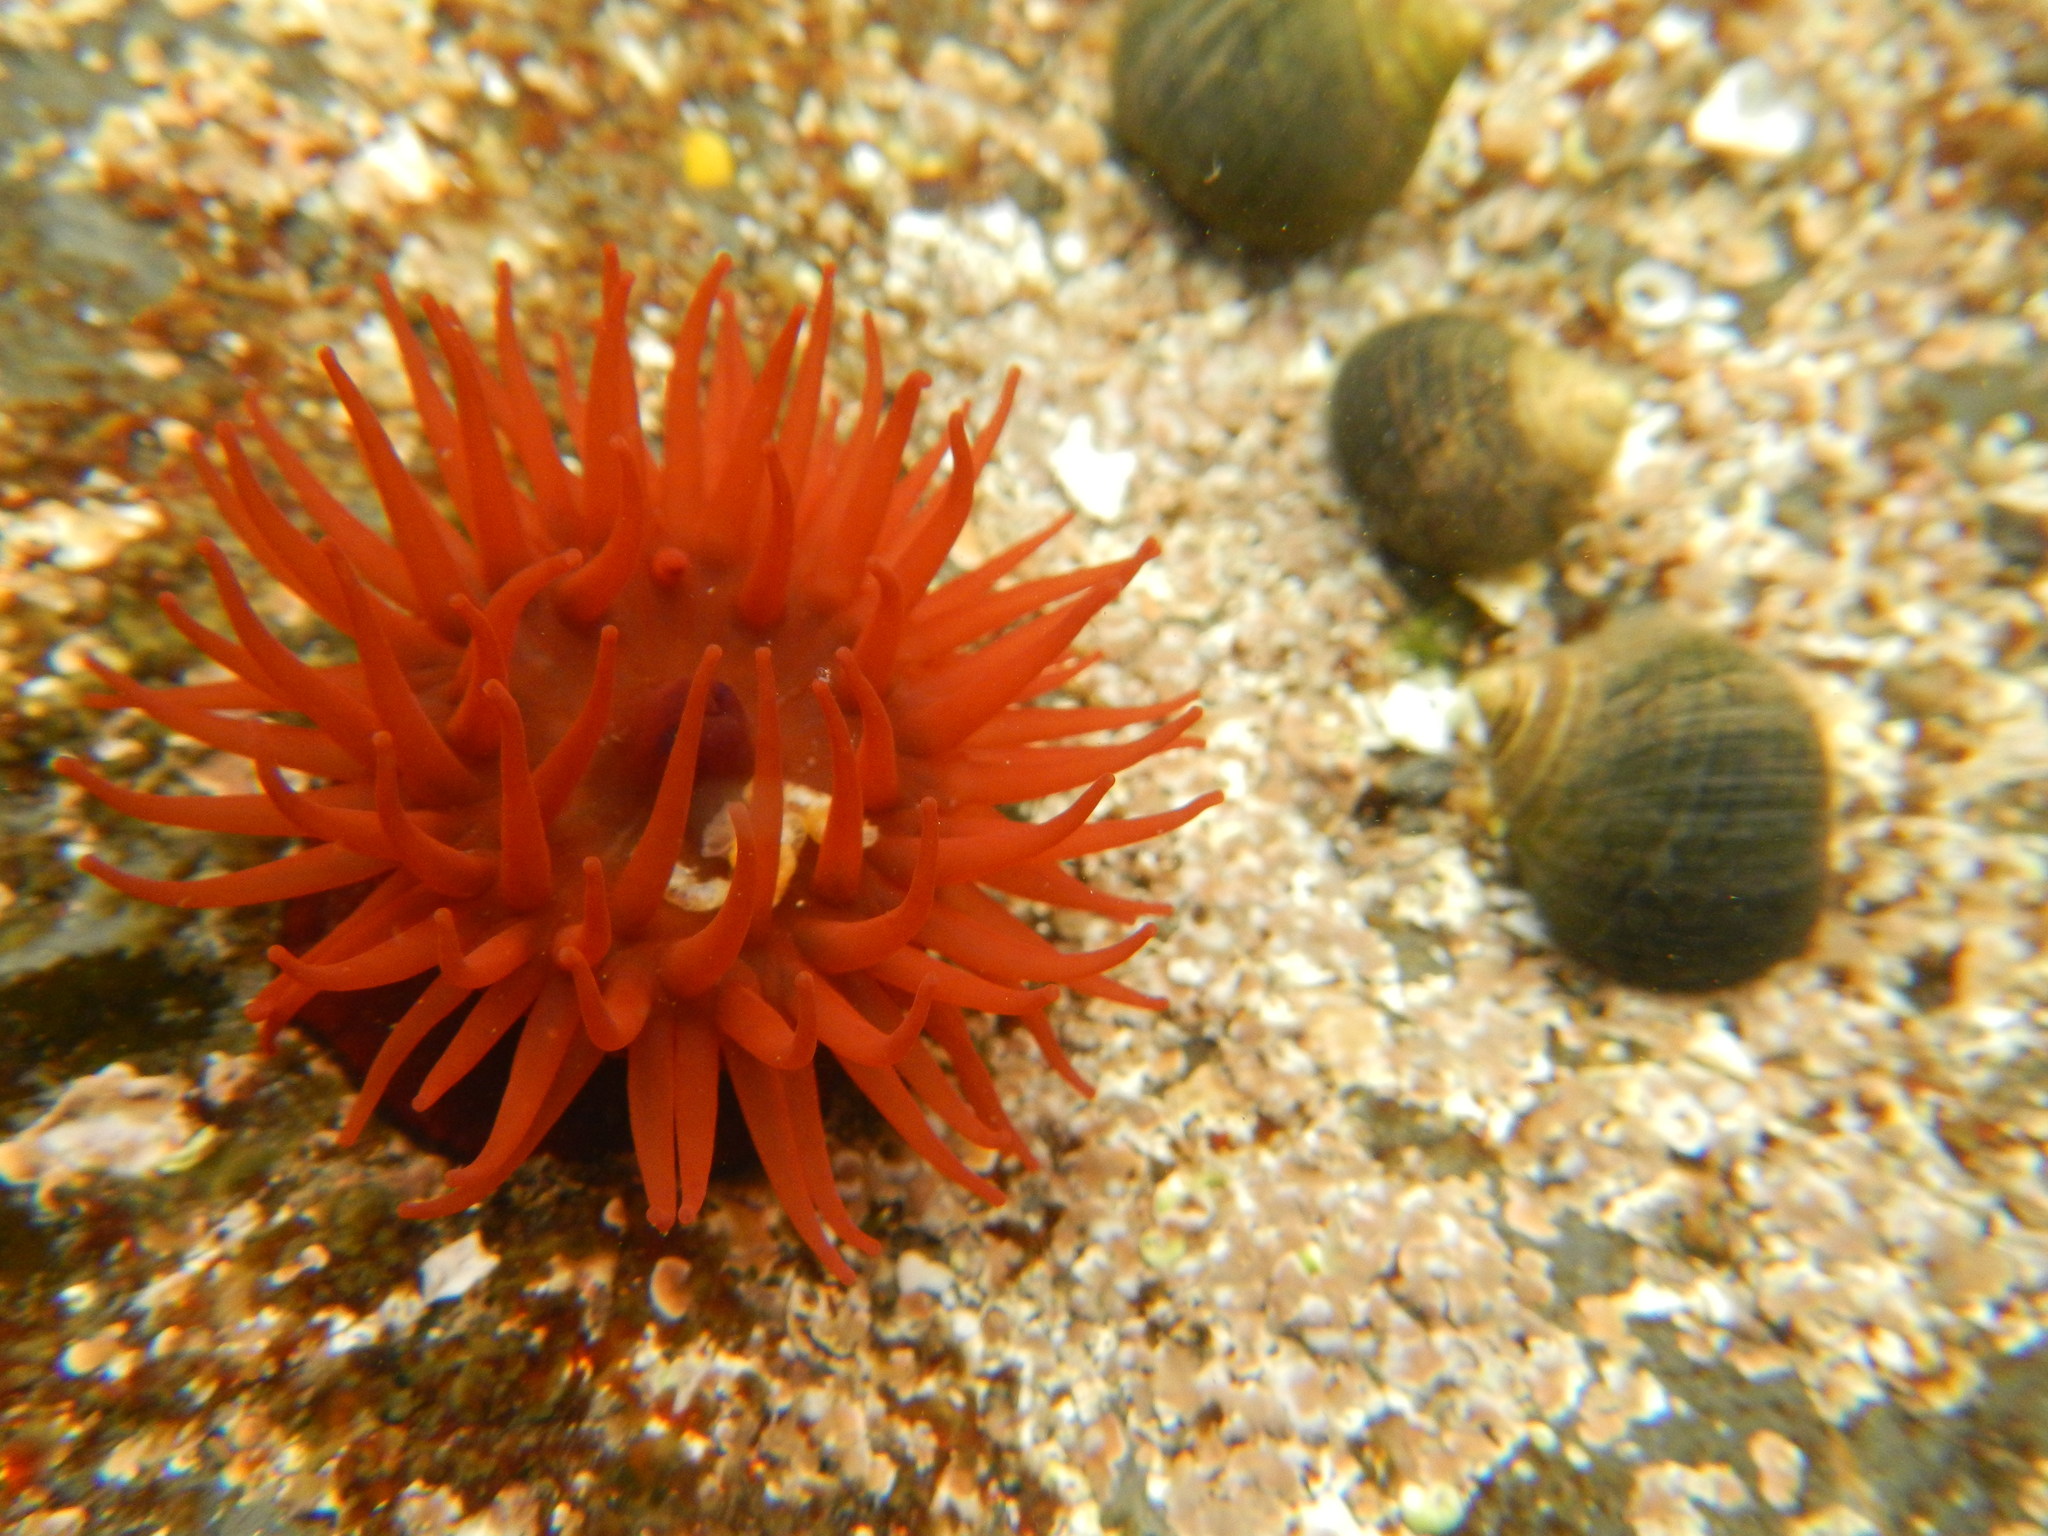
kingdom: Animalia
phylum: Cnidaria
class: Anthozoa
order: Actiniaria
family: Actiniidae
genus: Actinia
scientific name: Actinia equina
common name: Beadlet anemone
